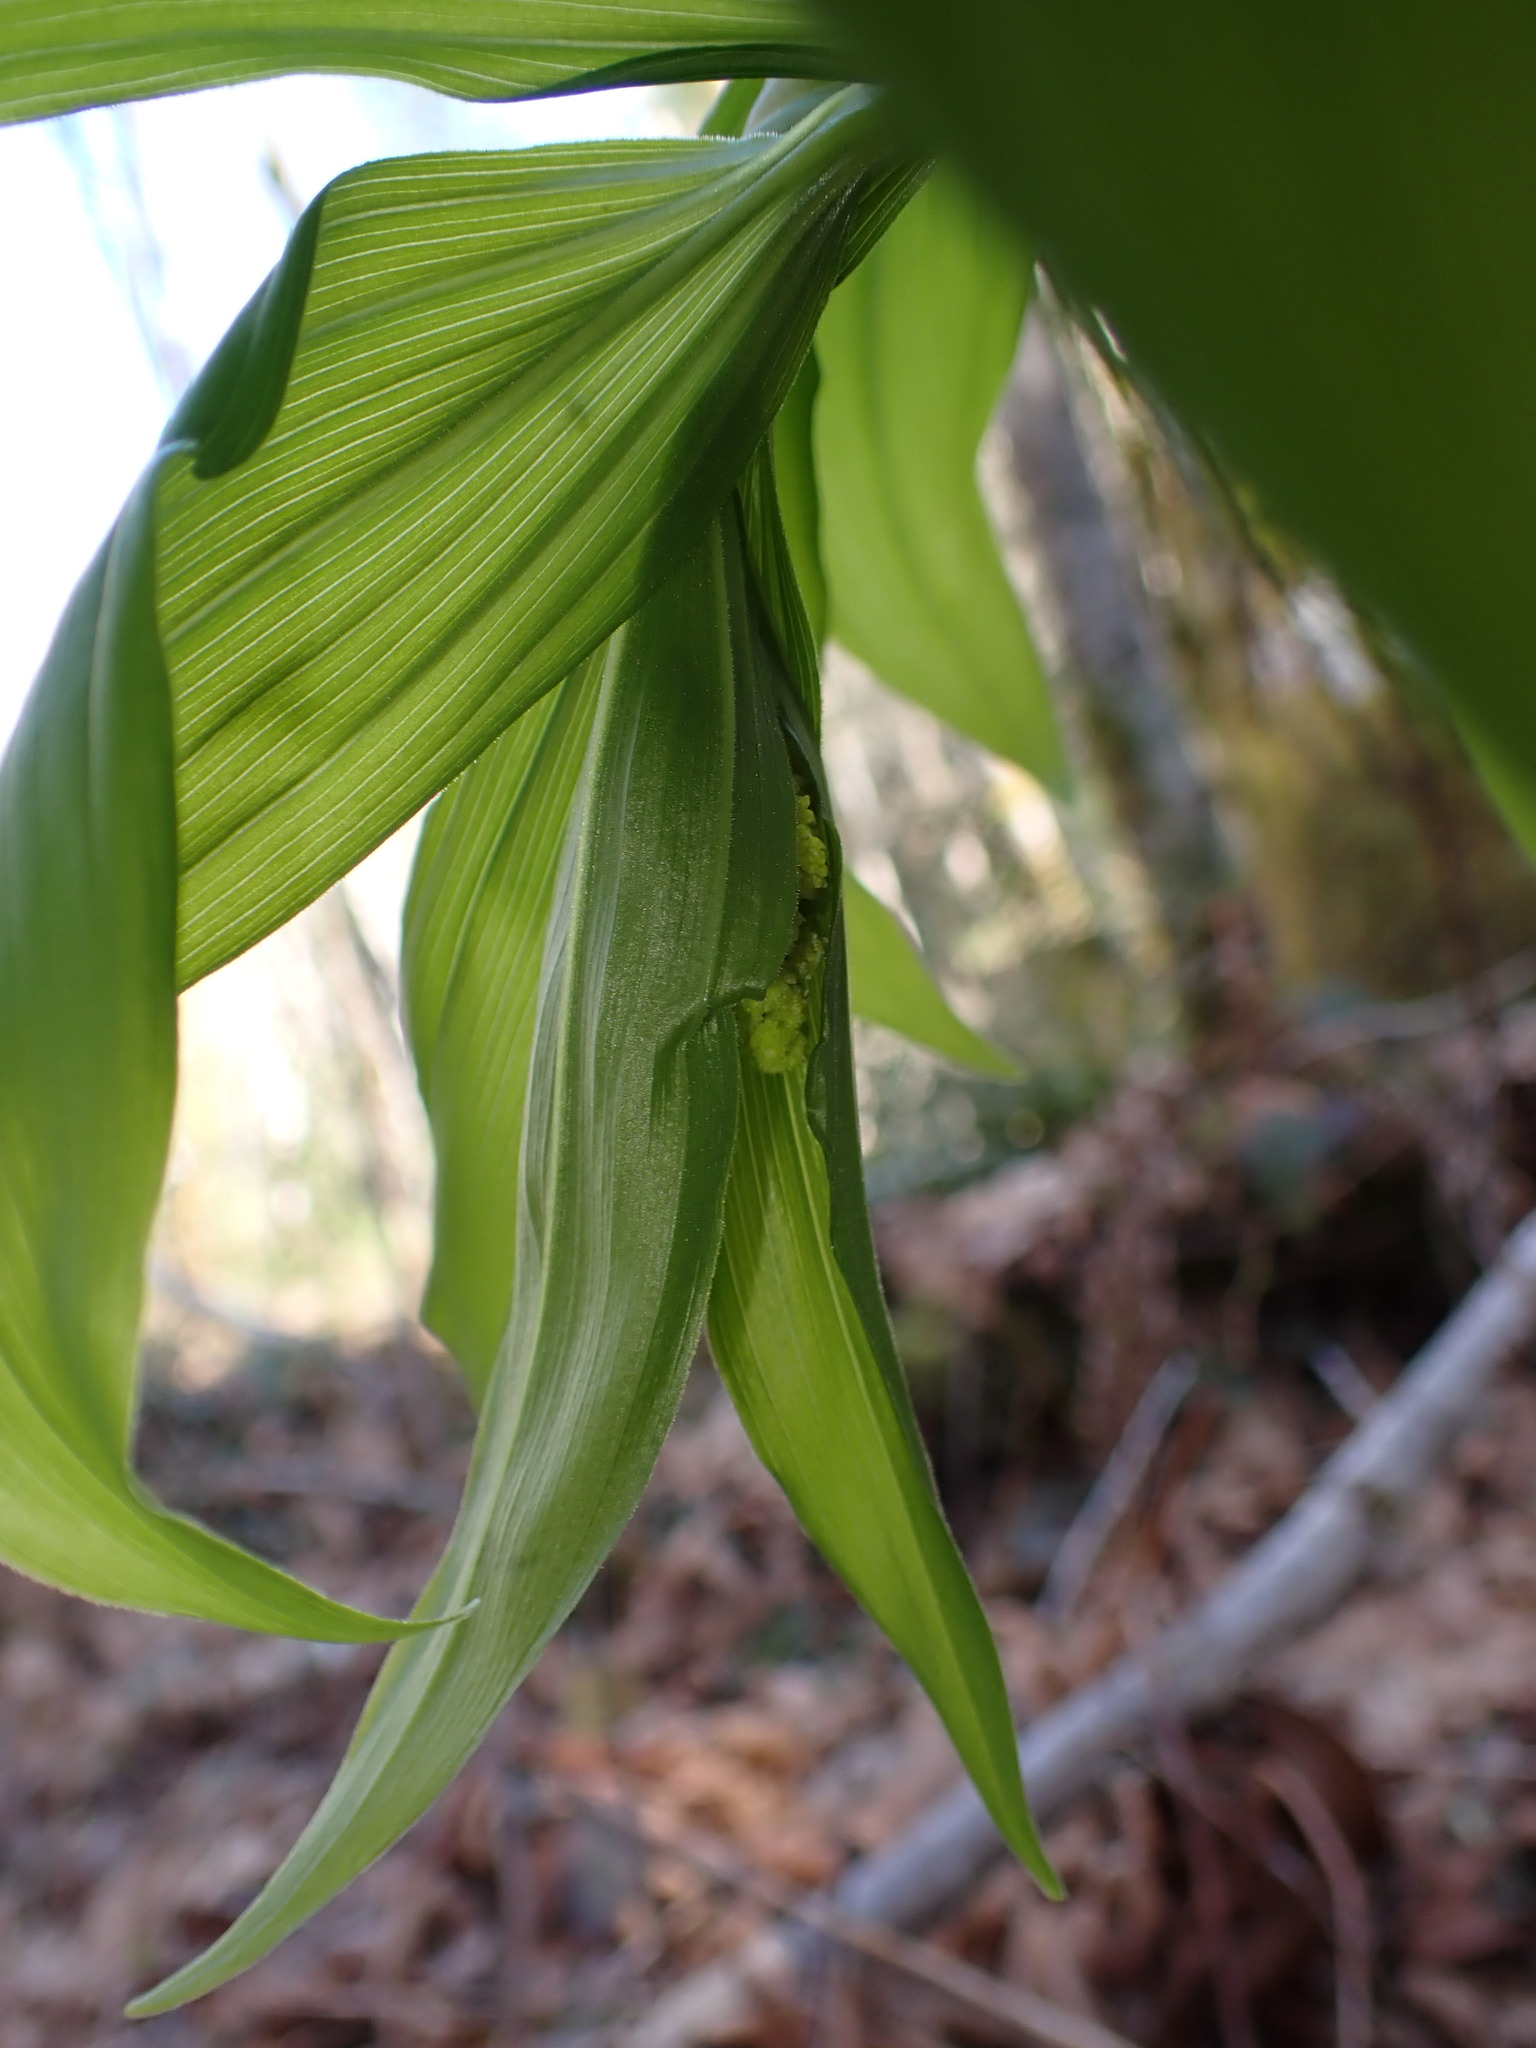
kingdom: Plantae
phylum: Tracheophyta
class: Liliopsida
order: Asparagales
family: Asparagaceae
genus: Maianthemum
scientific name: Maianthemum racemosum
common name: False spikenard
